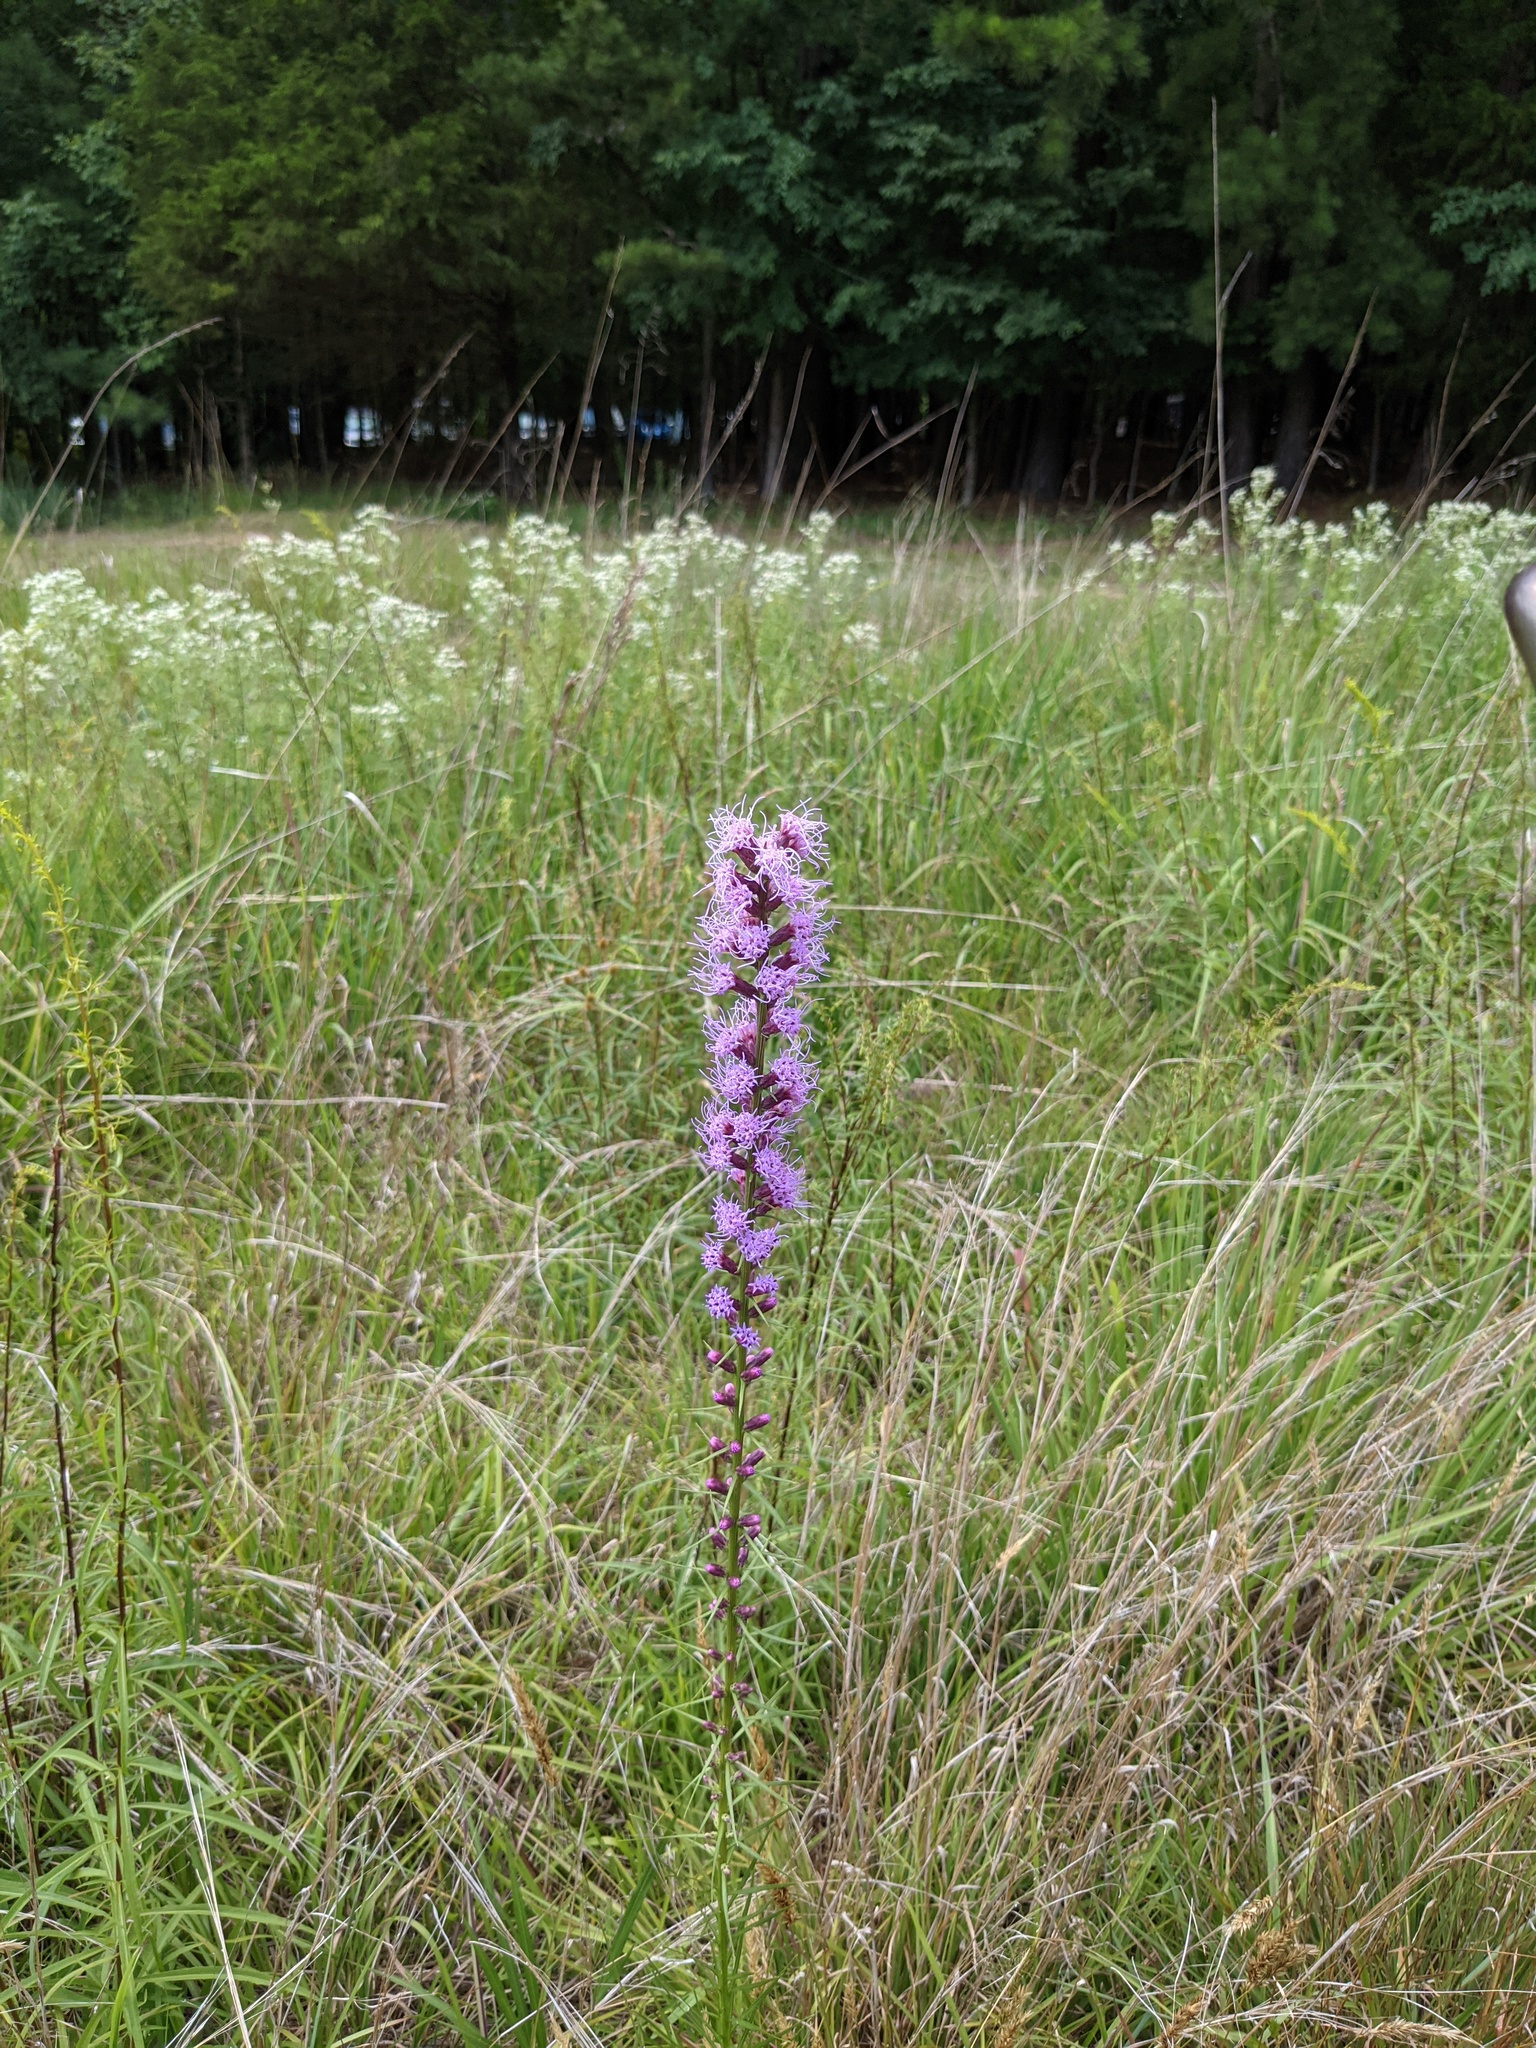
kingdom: Plantae
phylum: Tracheophyta
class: Magnoliopsida
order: Asterales
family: Asteraceae
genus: Liatris
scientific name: Liatris spicata
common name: Florist gayfeather
